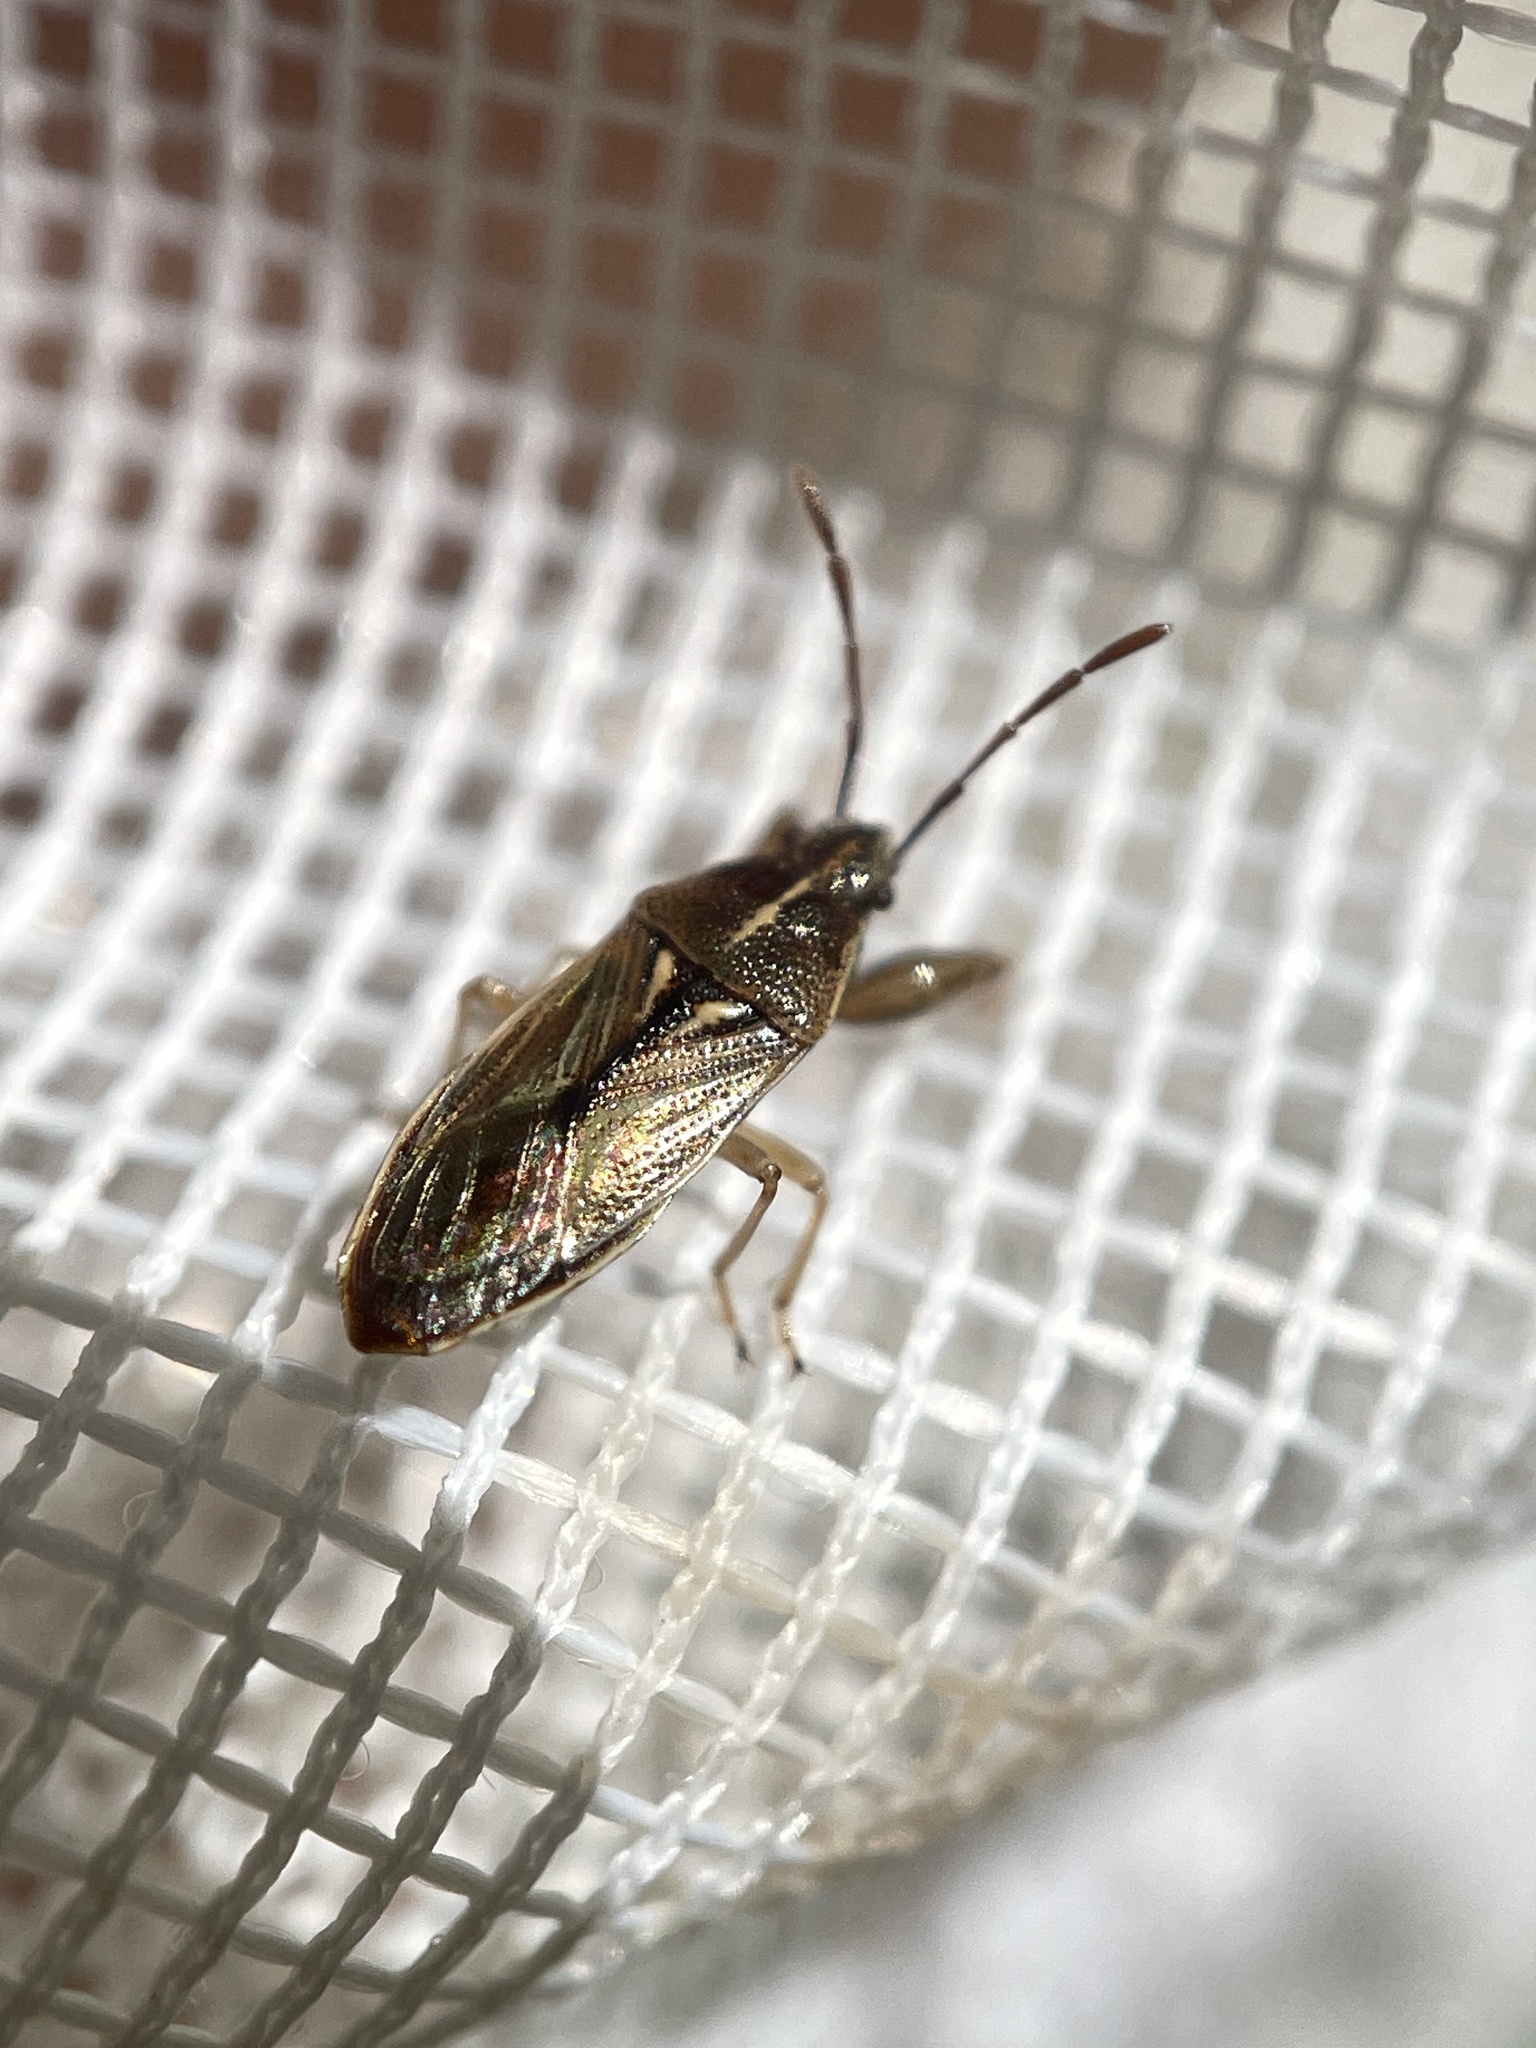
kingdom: Animalia
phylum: Arthropoda
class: Insecta
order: Hemiptera
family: Pachygronthidae
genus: Oedancala
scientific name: Oedancala dorsalis
